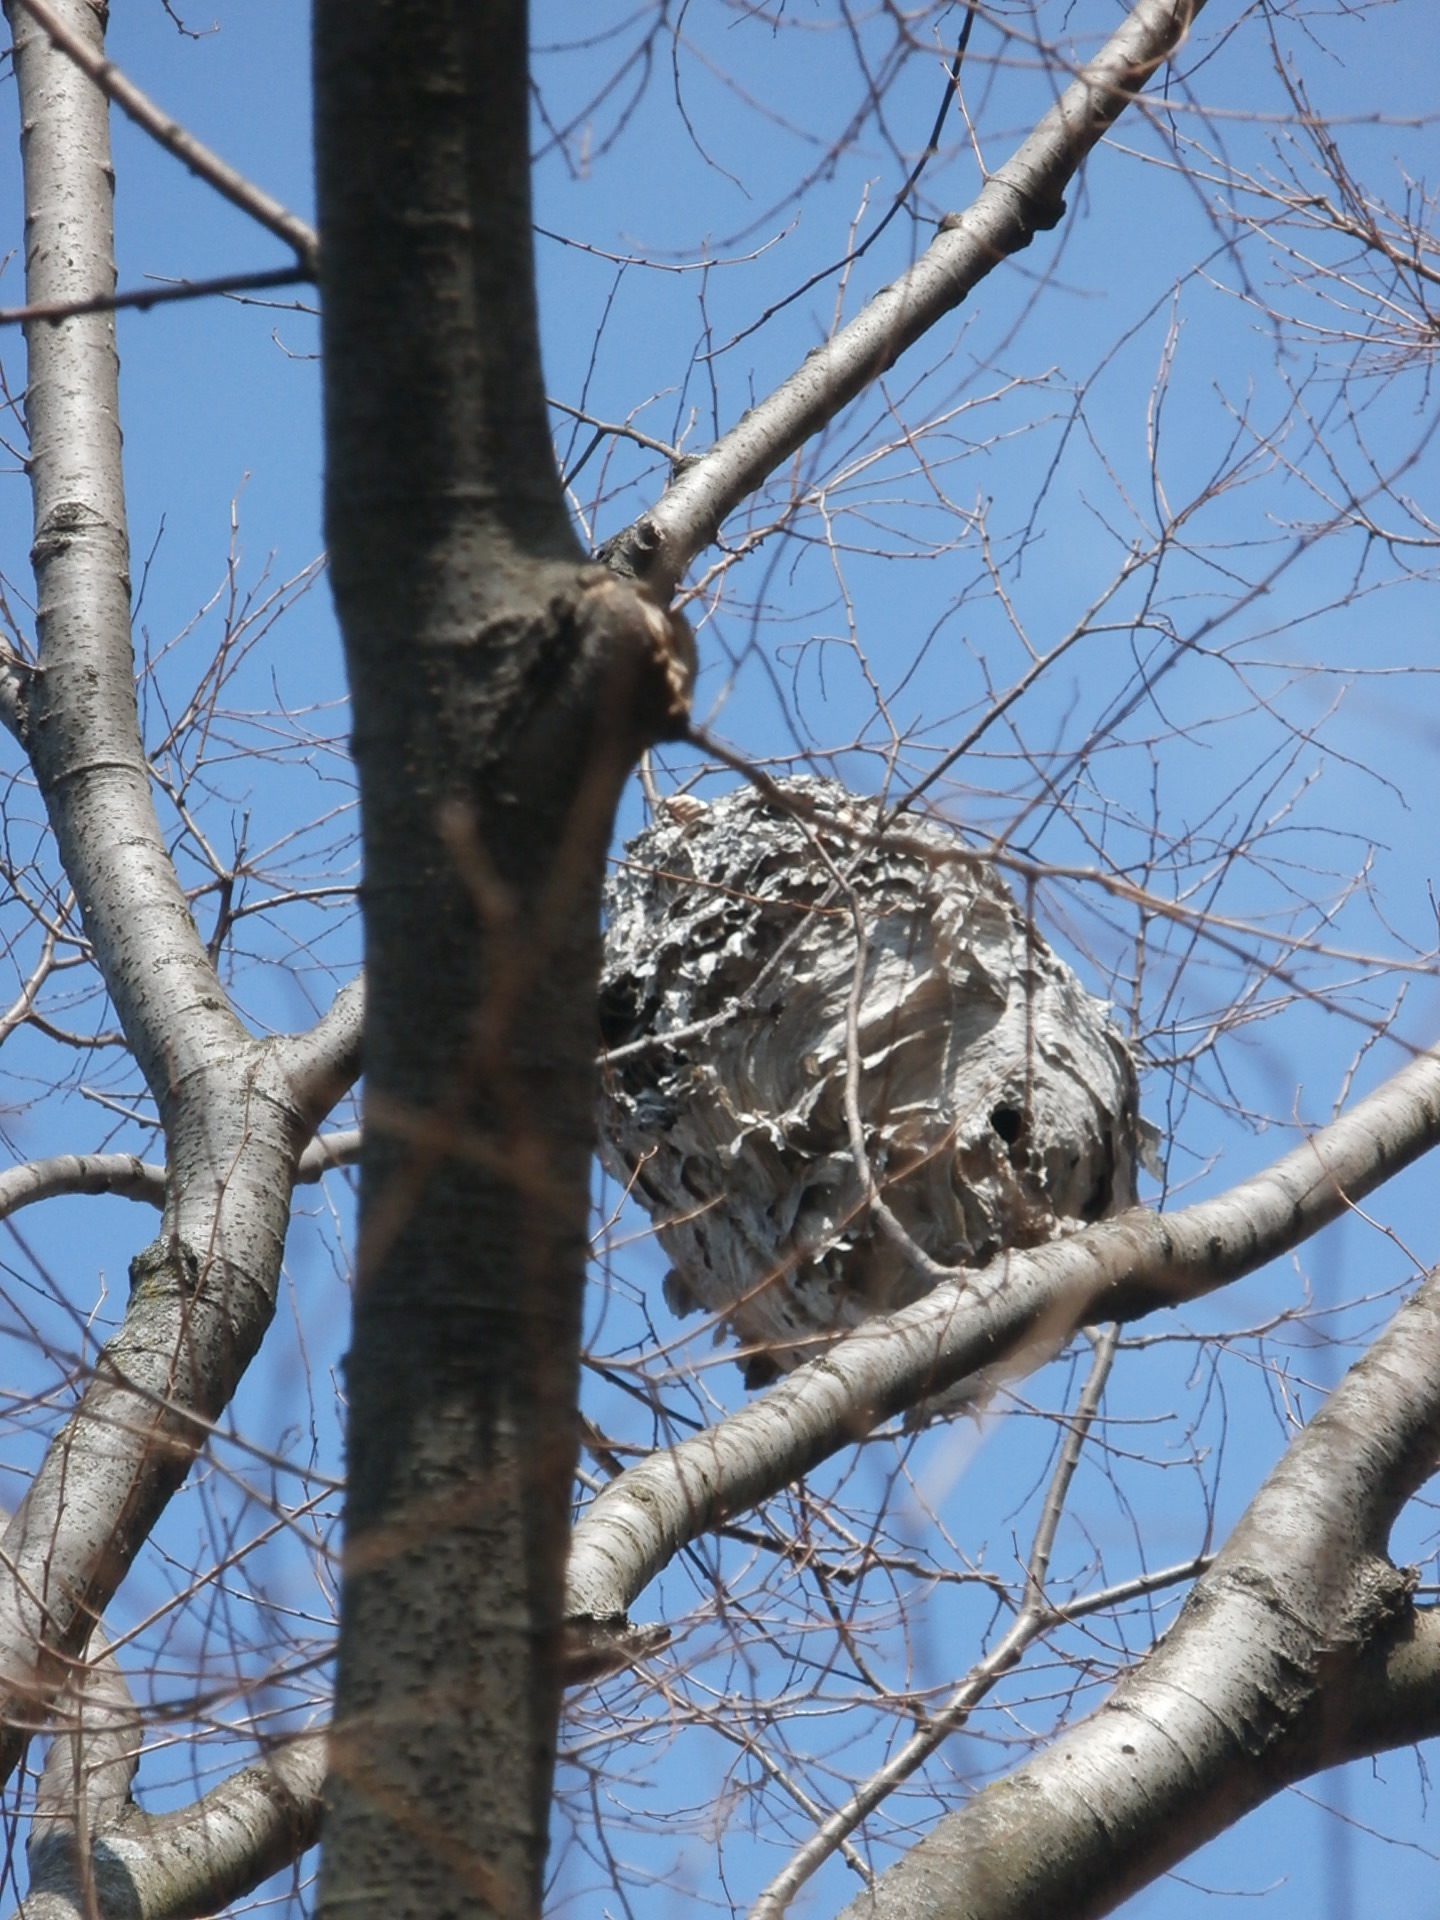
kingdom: Animalia
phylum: Arthropoda
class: Insecta
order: Hymenoptera
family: Vespidae
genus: Dolichovespula
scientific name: Dolichovespula
